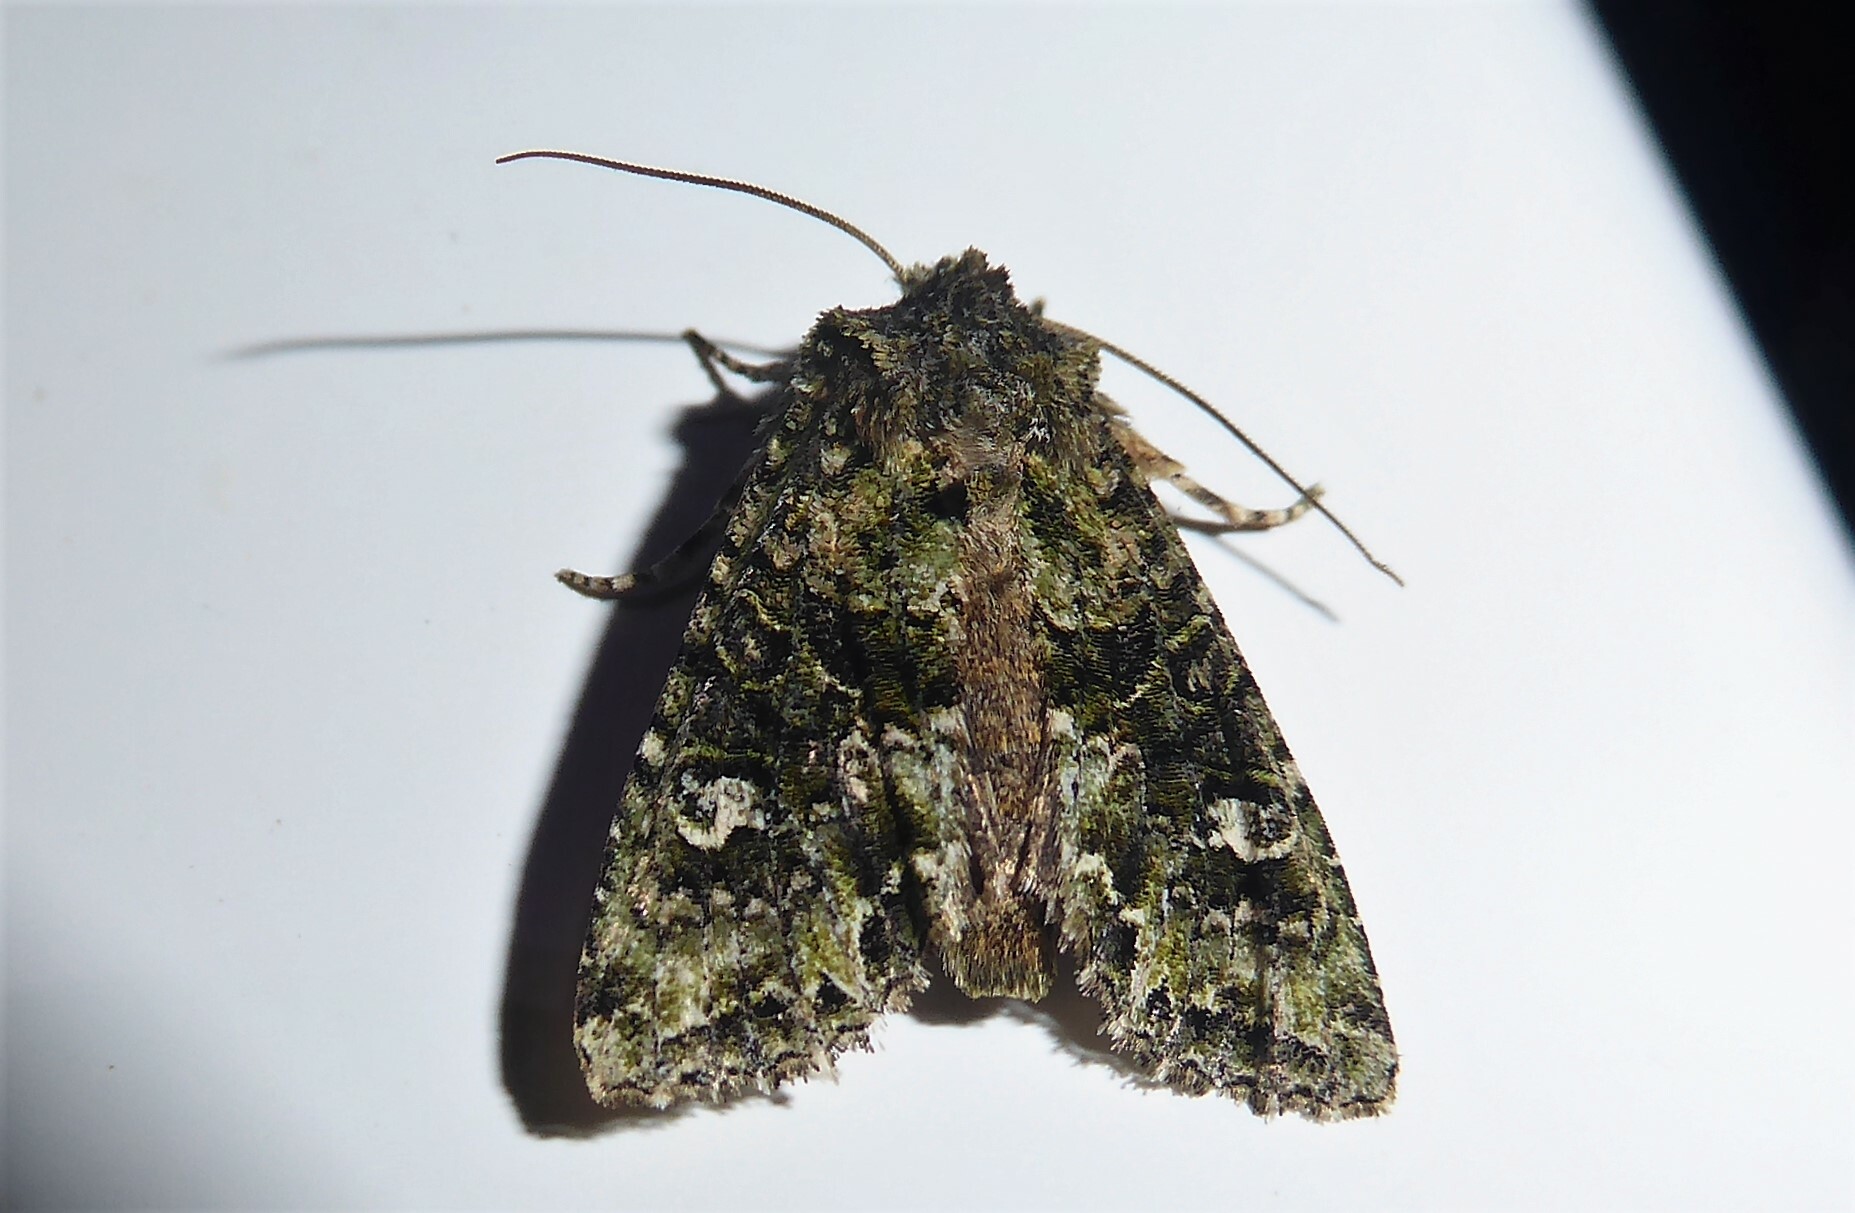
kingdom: Animalia
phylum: Arthropoda
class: Insecta
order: Lepidoptera
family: Noctuidae
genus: Ichneutica
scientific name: Ichneutica
